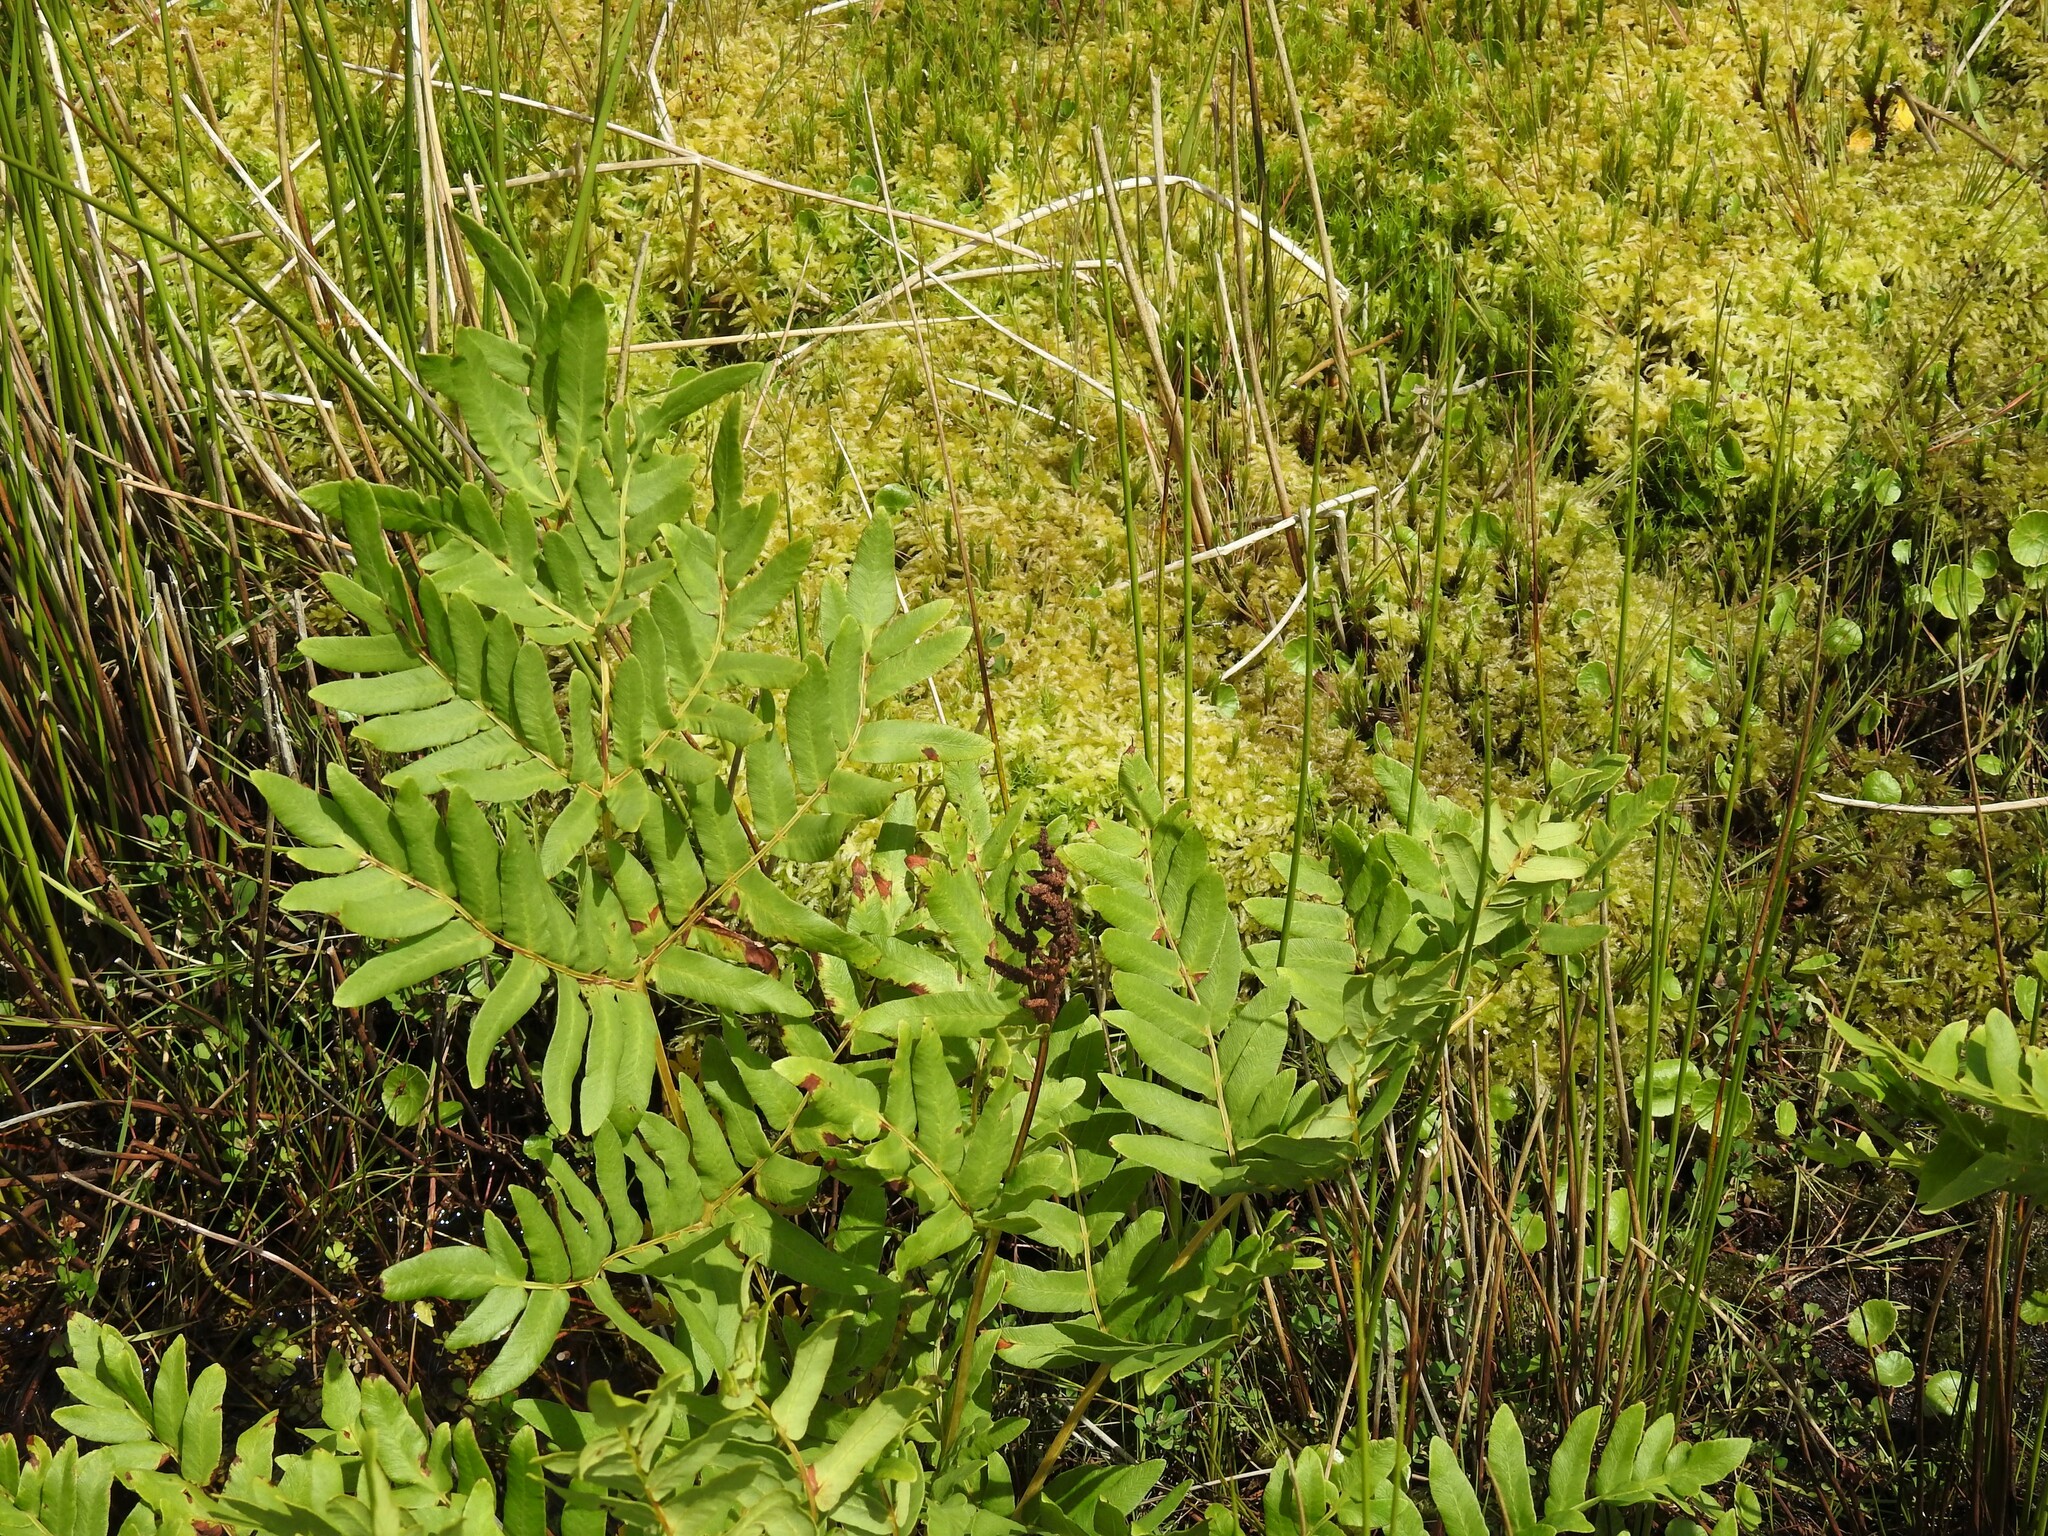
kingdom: Plantae
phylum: Tracheophyta
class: Polypodiopsida
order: Osmundales
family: Osmundaceae
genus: Osmunda
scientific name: Osmunda regalis
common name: Royal fern
